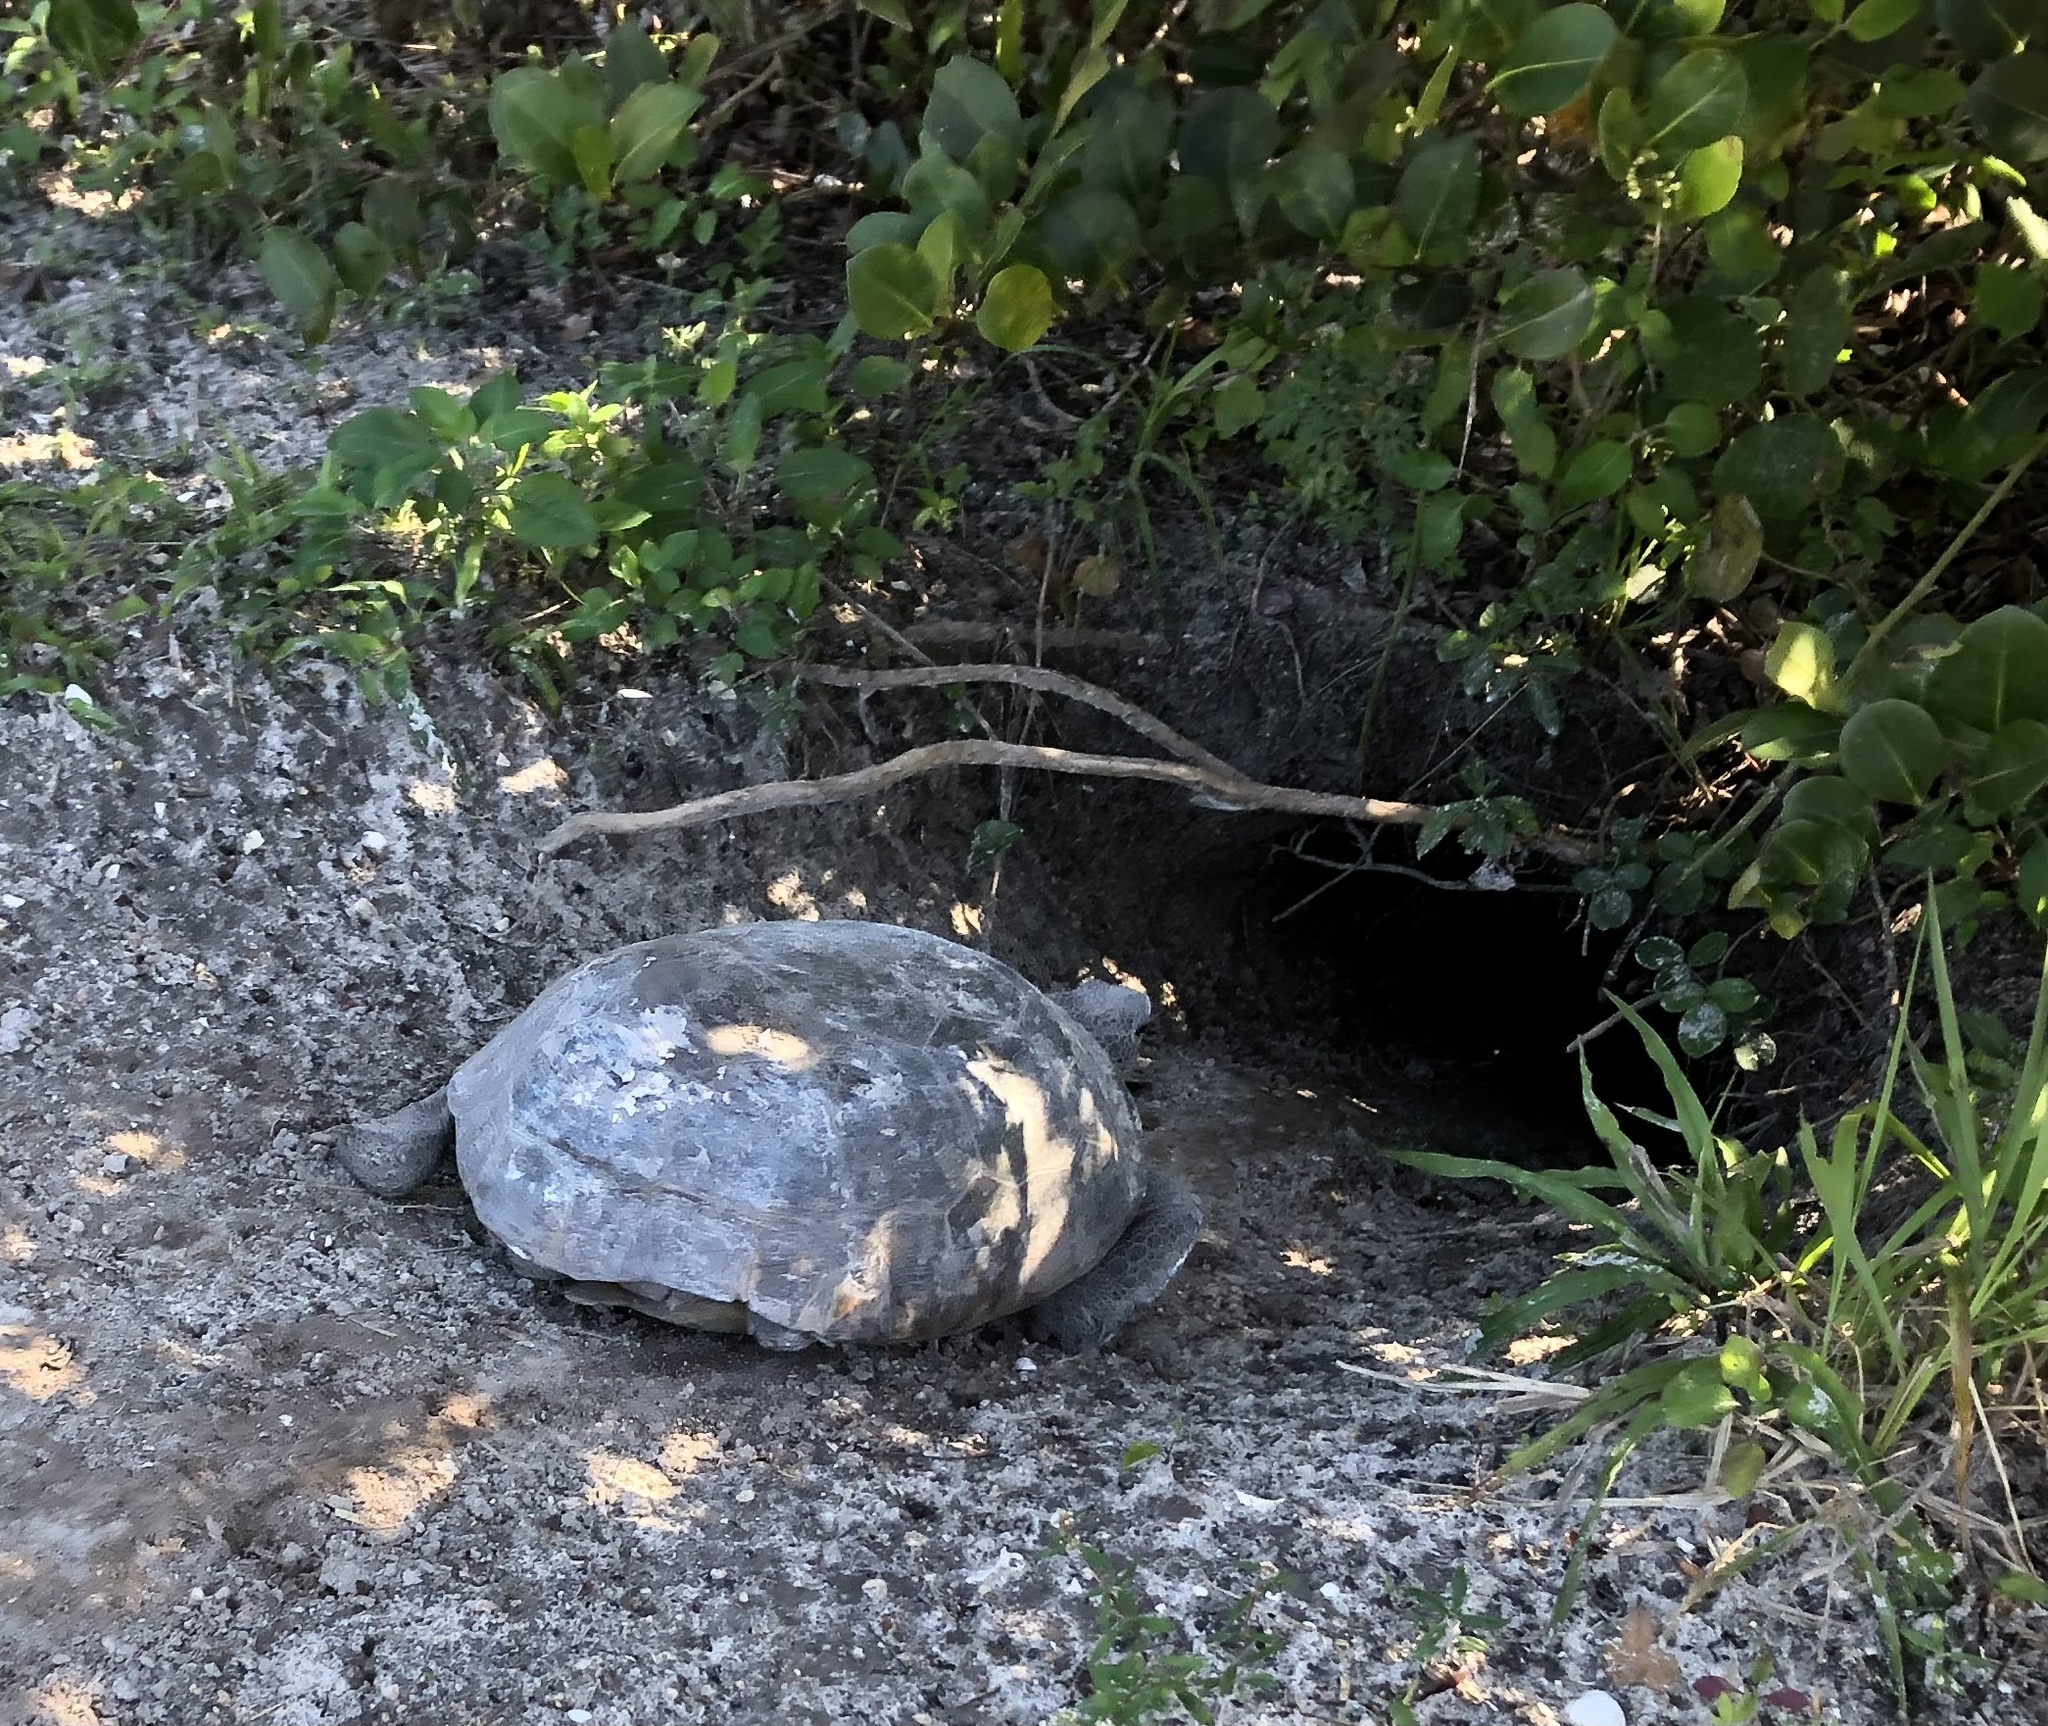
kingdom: Animalia
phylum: Chordata
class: Testudines
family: Testudinidae
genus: Gopherus
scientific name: Gopherus polyphemus
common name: Florida gopher tortoise
